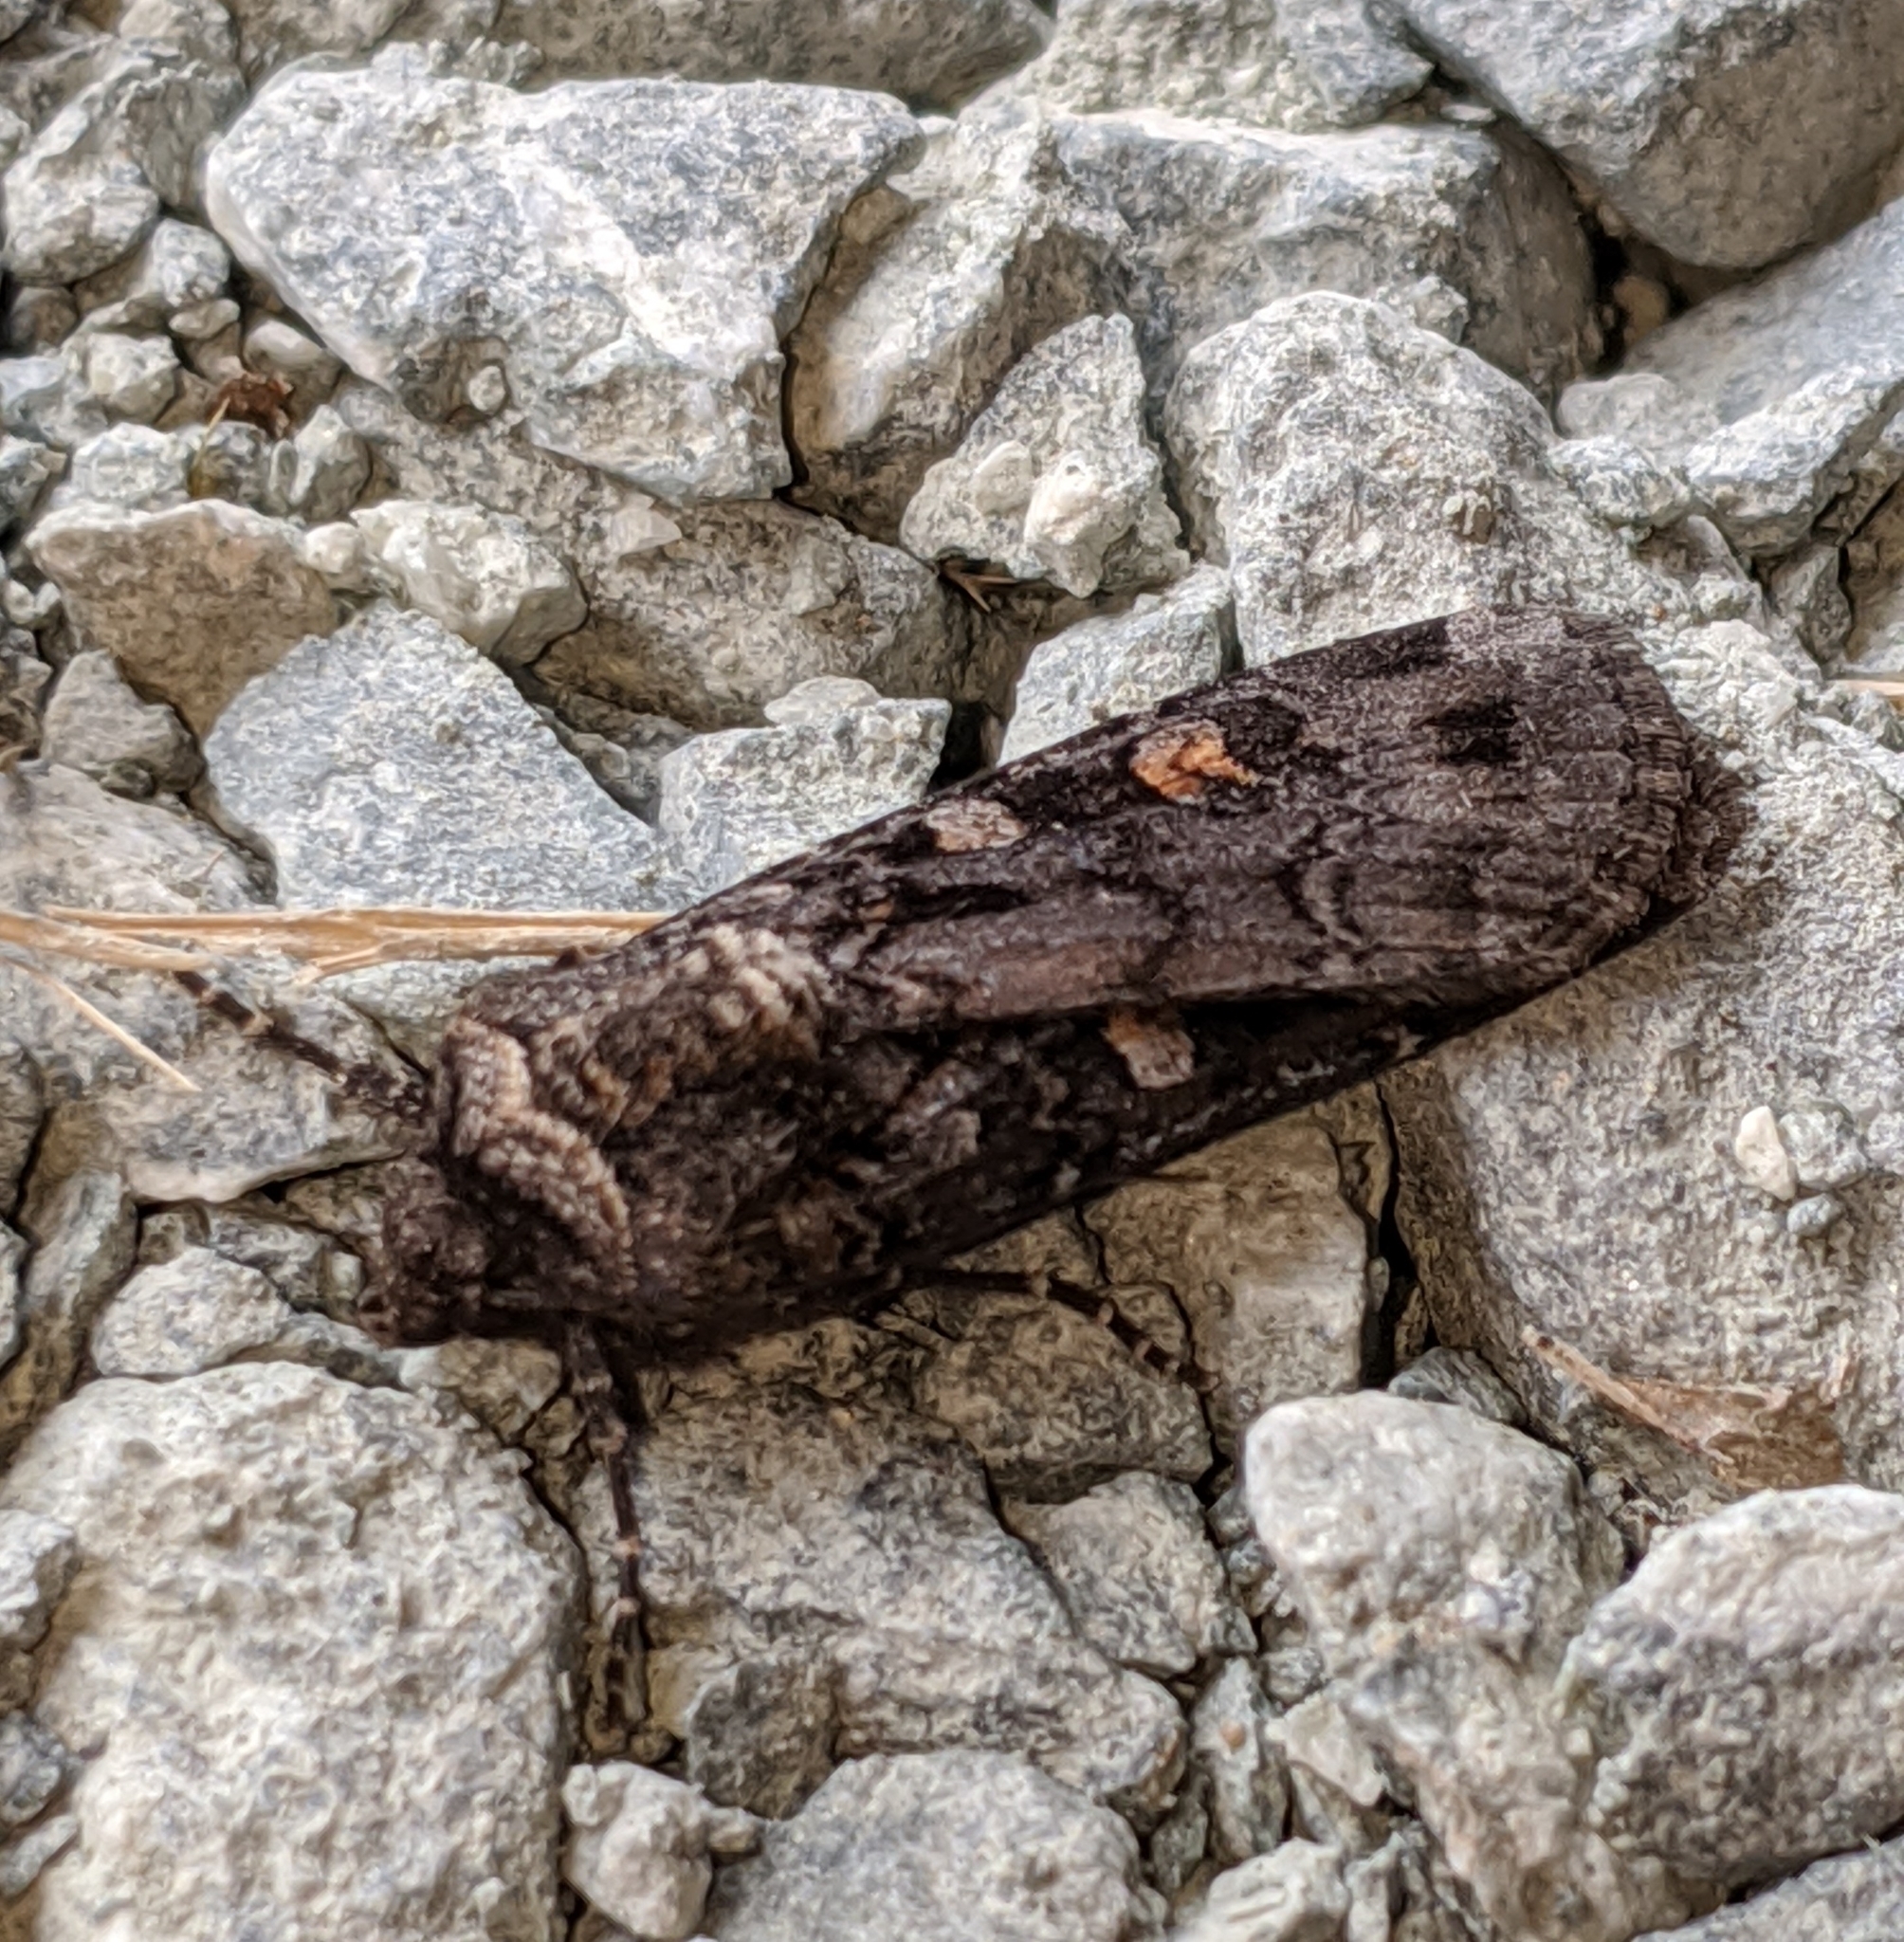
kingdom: Animalia
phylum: Arthropoda
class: Insecta
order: Lepidoptera
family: Noctuidae
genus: Euxoa
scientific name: Euxoa tessellata
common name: Striped cutworm
